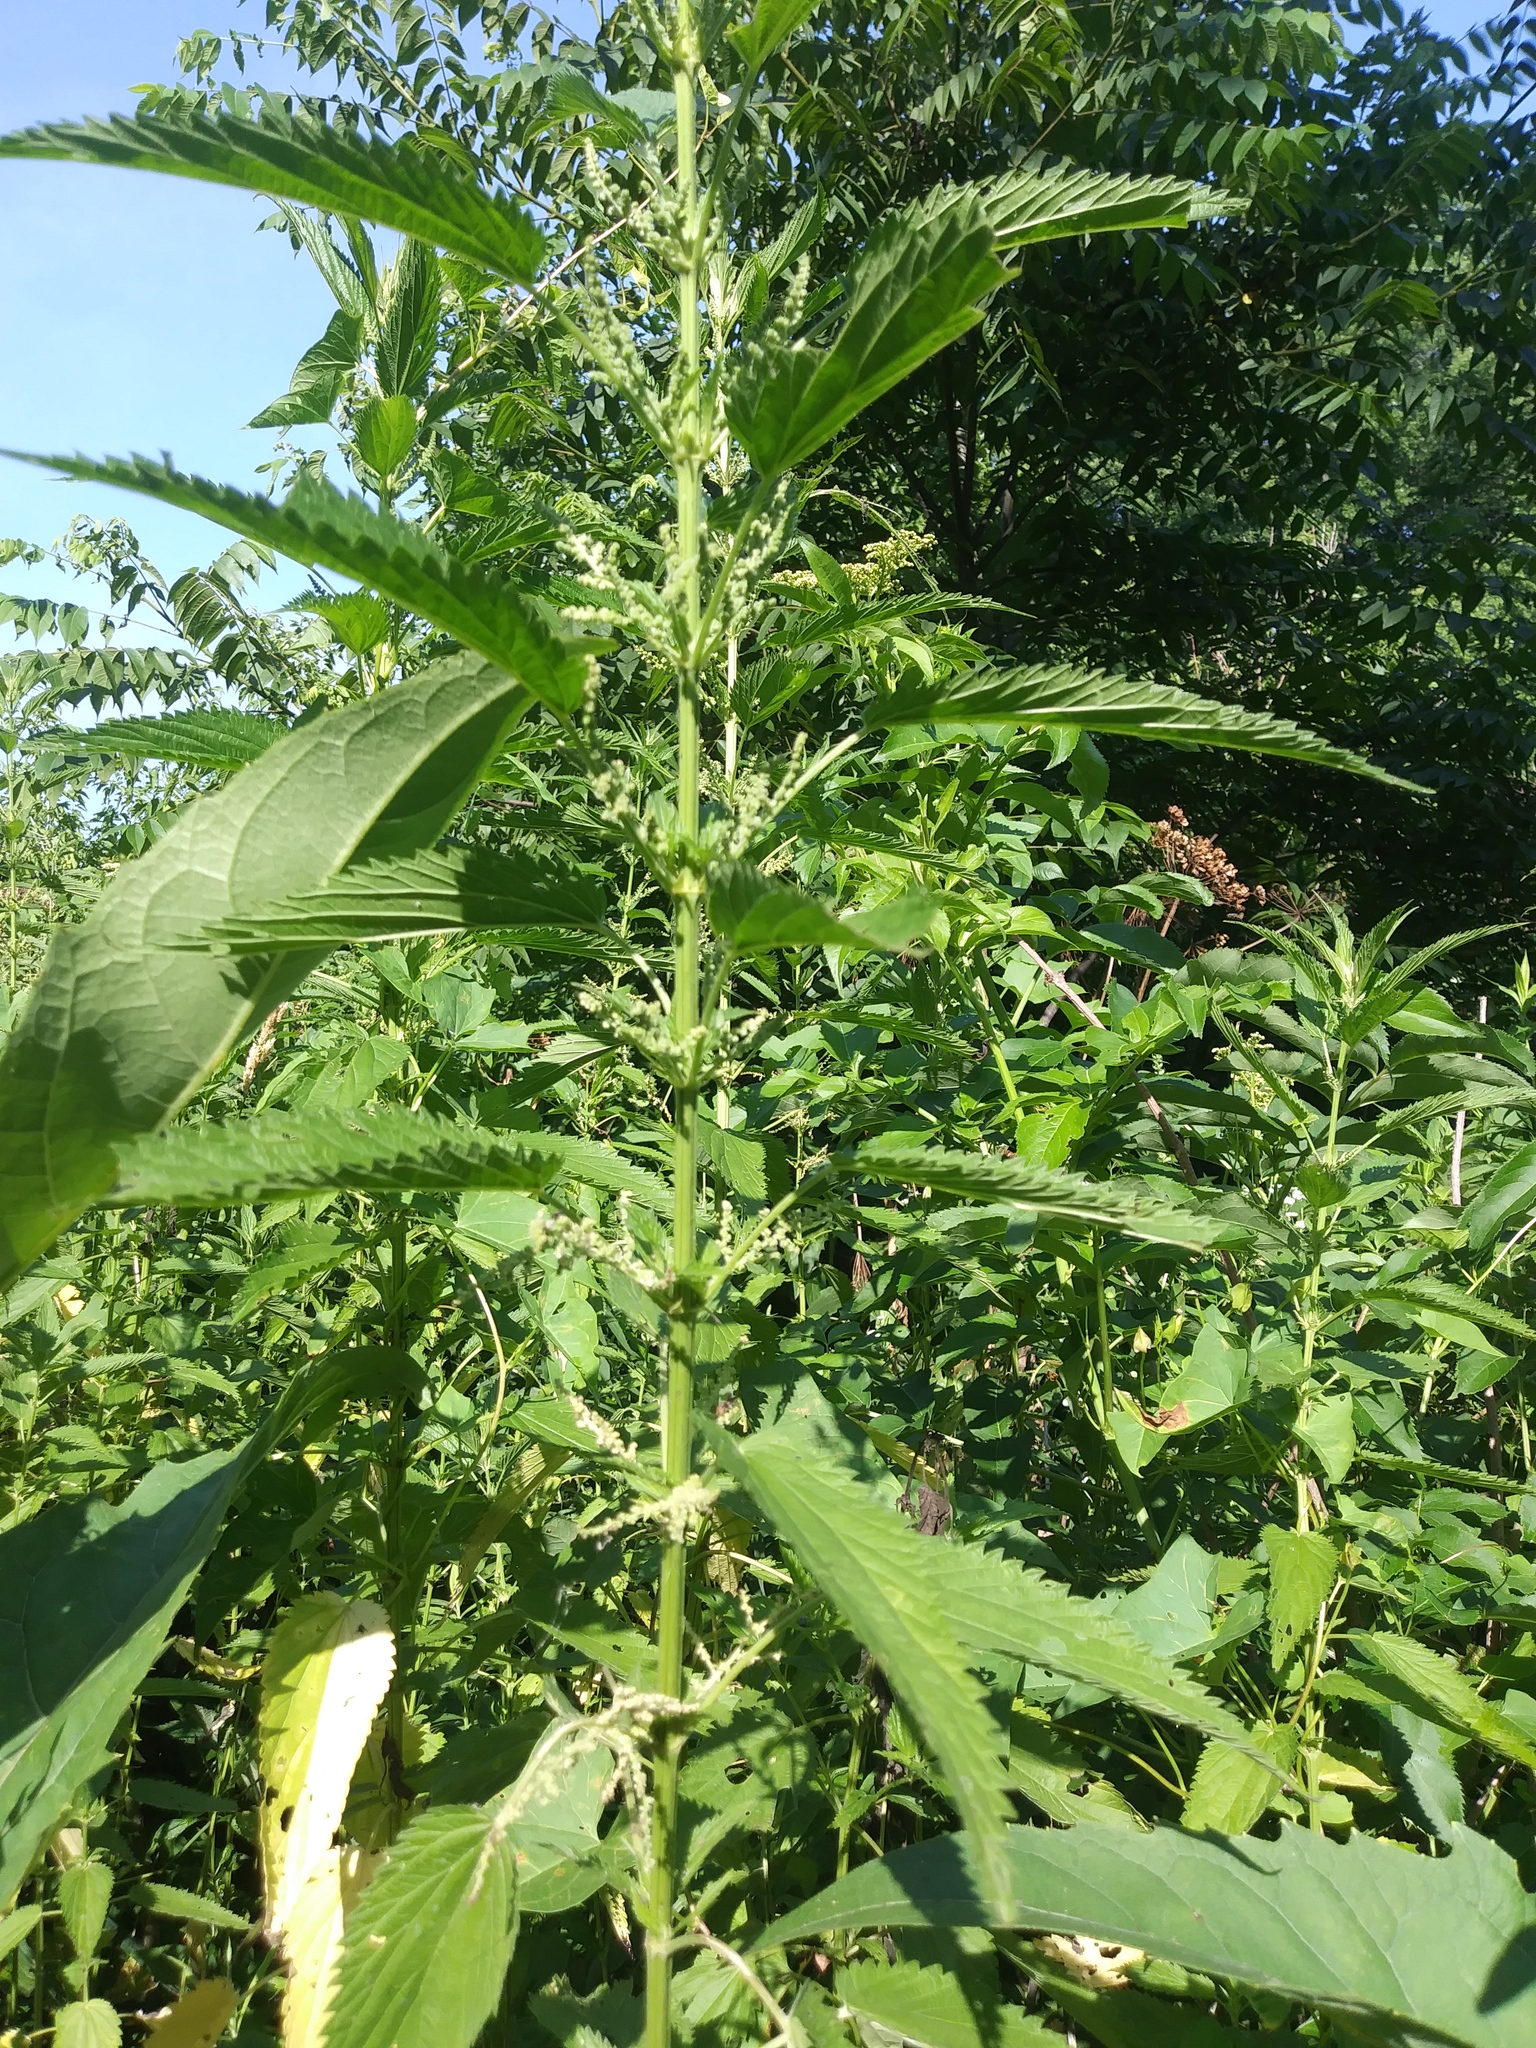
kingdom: Plantae
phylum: Tracheophyta
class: Magnoliopsida
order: Rosales
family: Urticaceae
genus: Urtica
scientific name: Urtica dioica
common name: Common nettle
